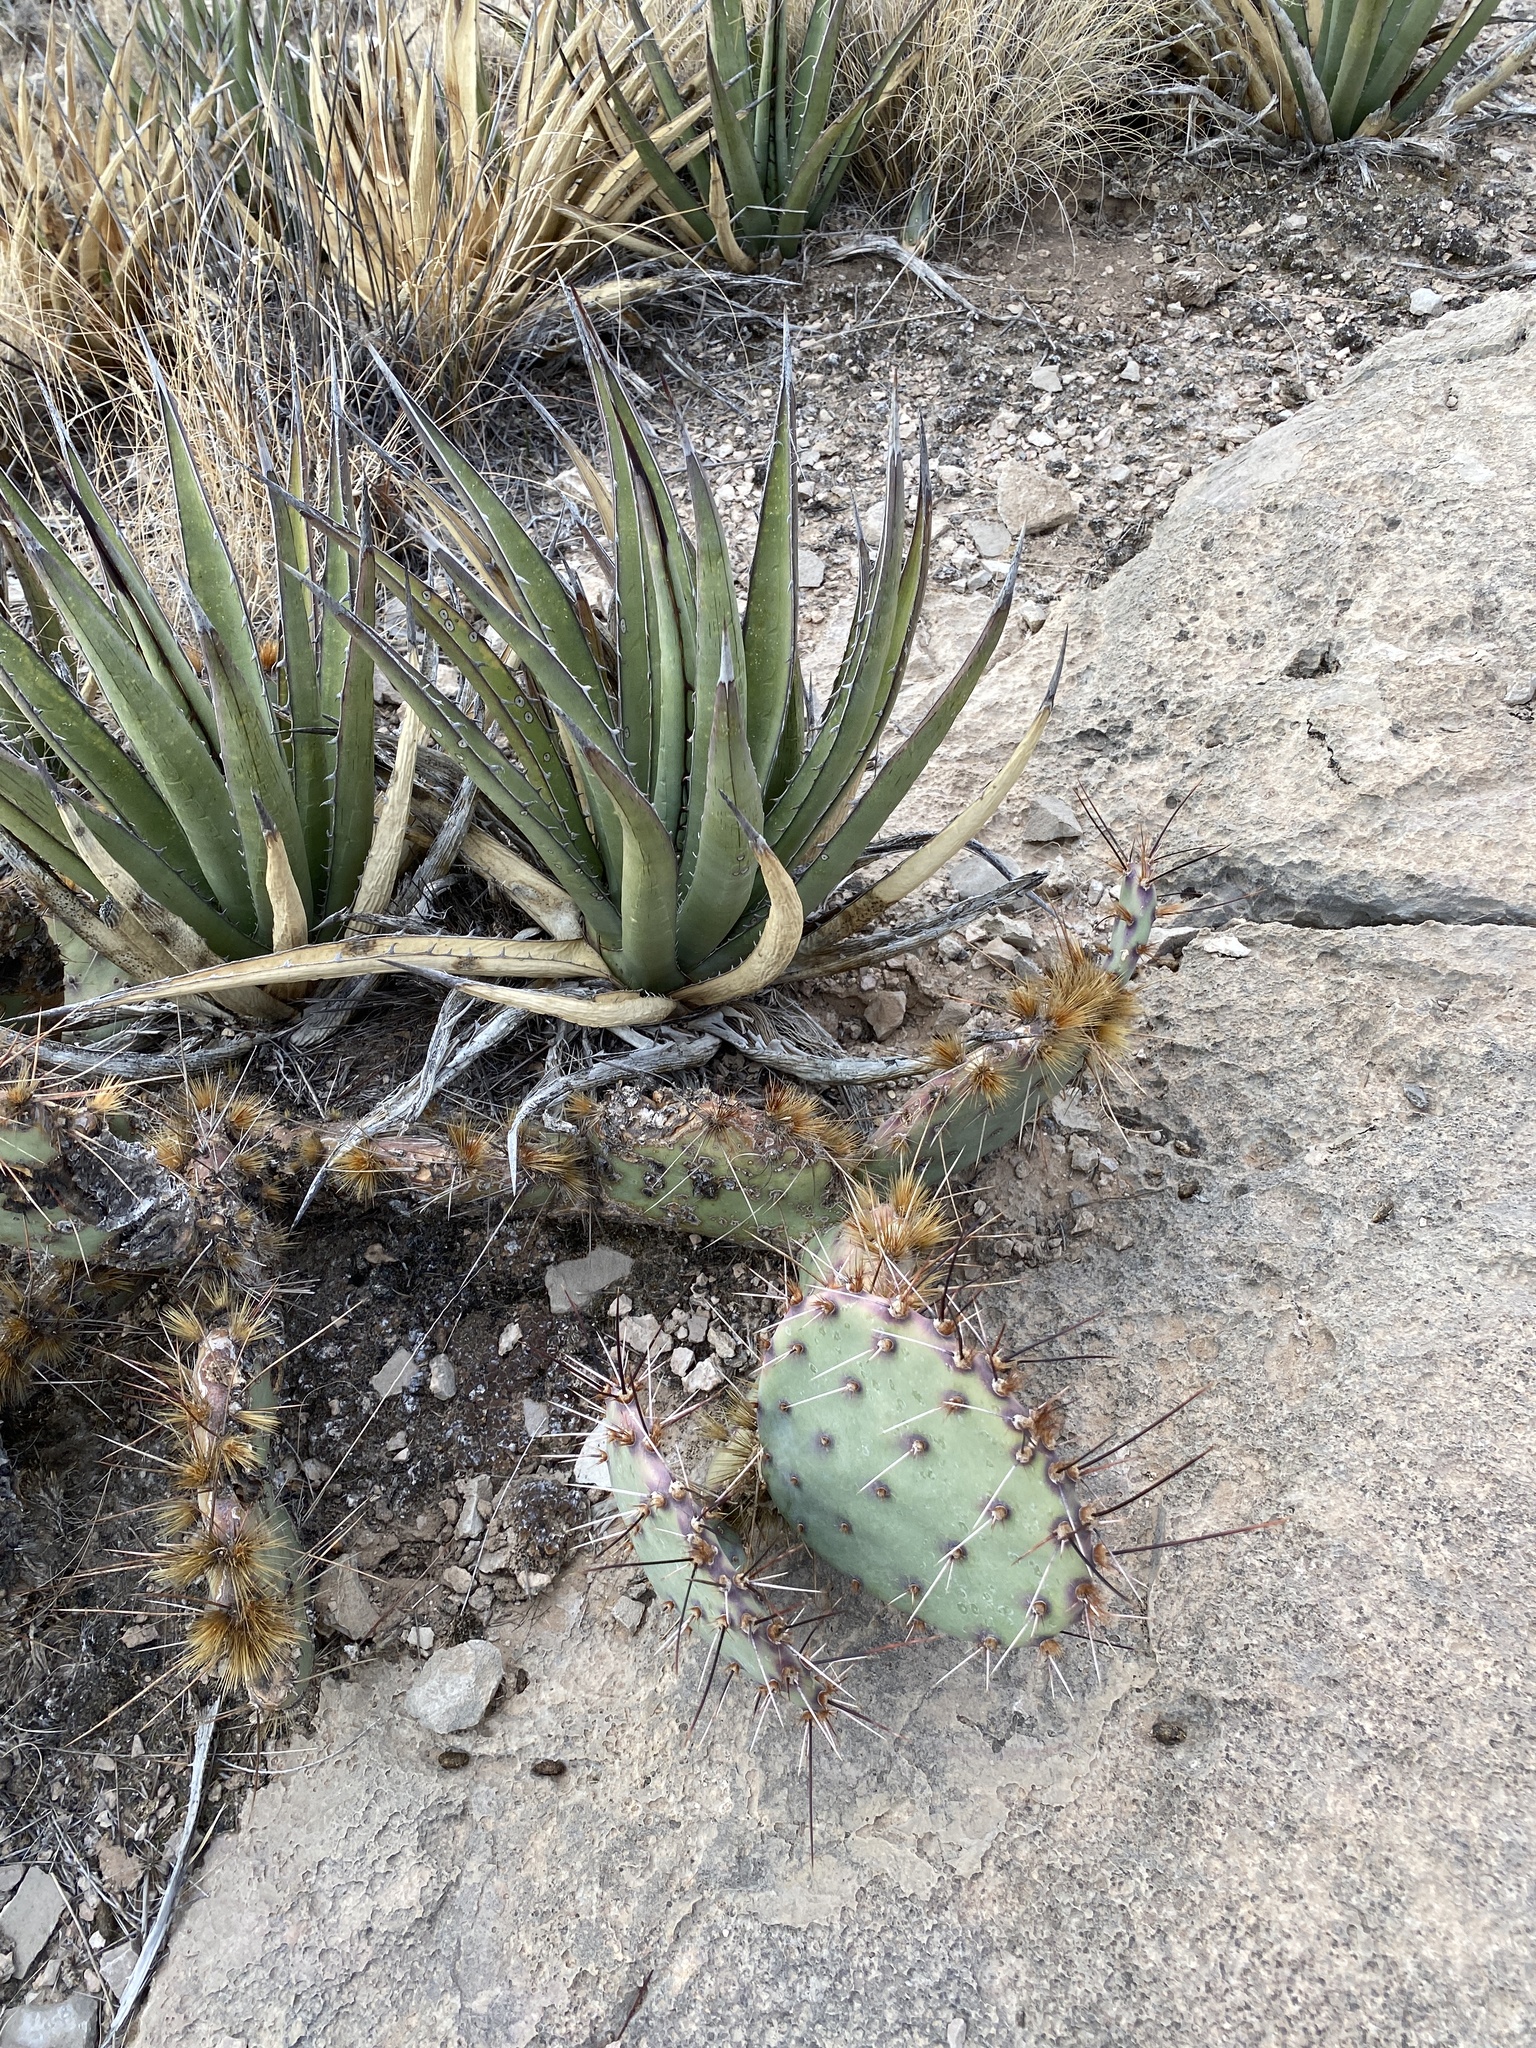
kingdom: Plantae
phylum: Tracheophyta
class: Liliopsida
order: Asparagales
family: Asparagaceae
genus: Agave
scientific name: Agave lechuguilla
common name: Lecheguilla agave
